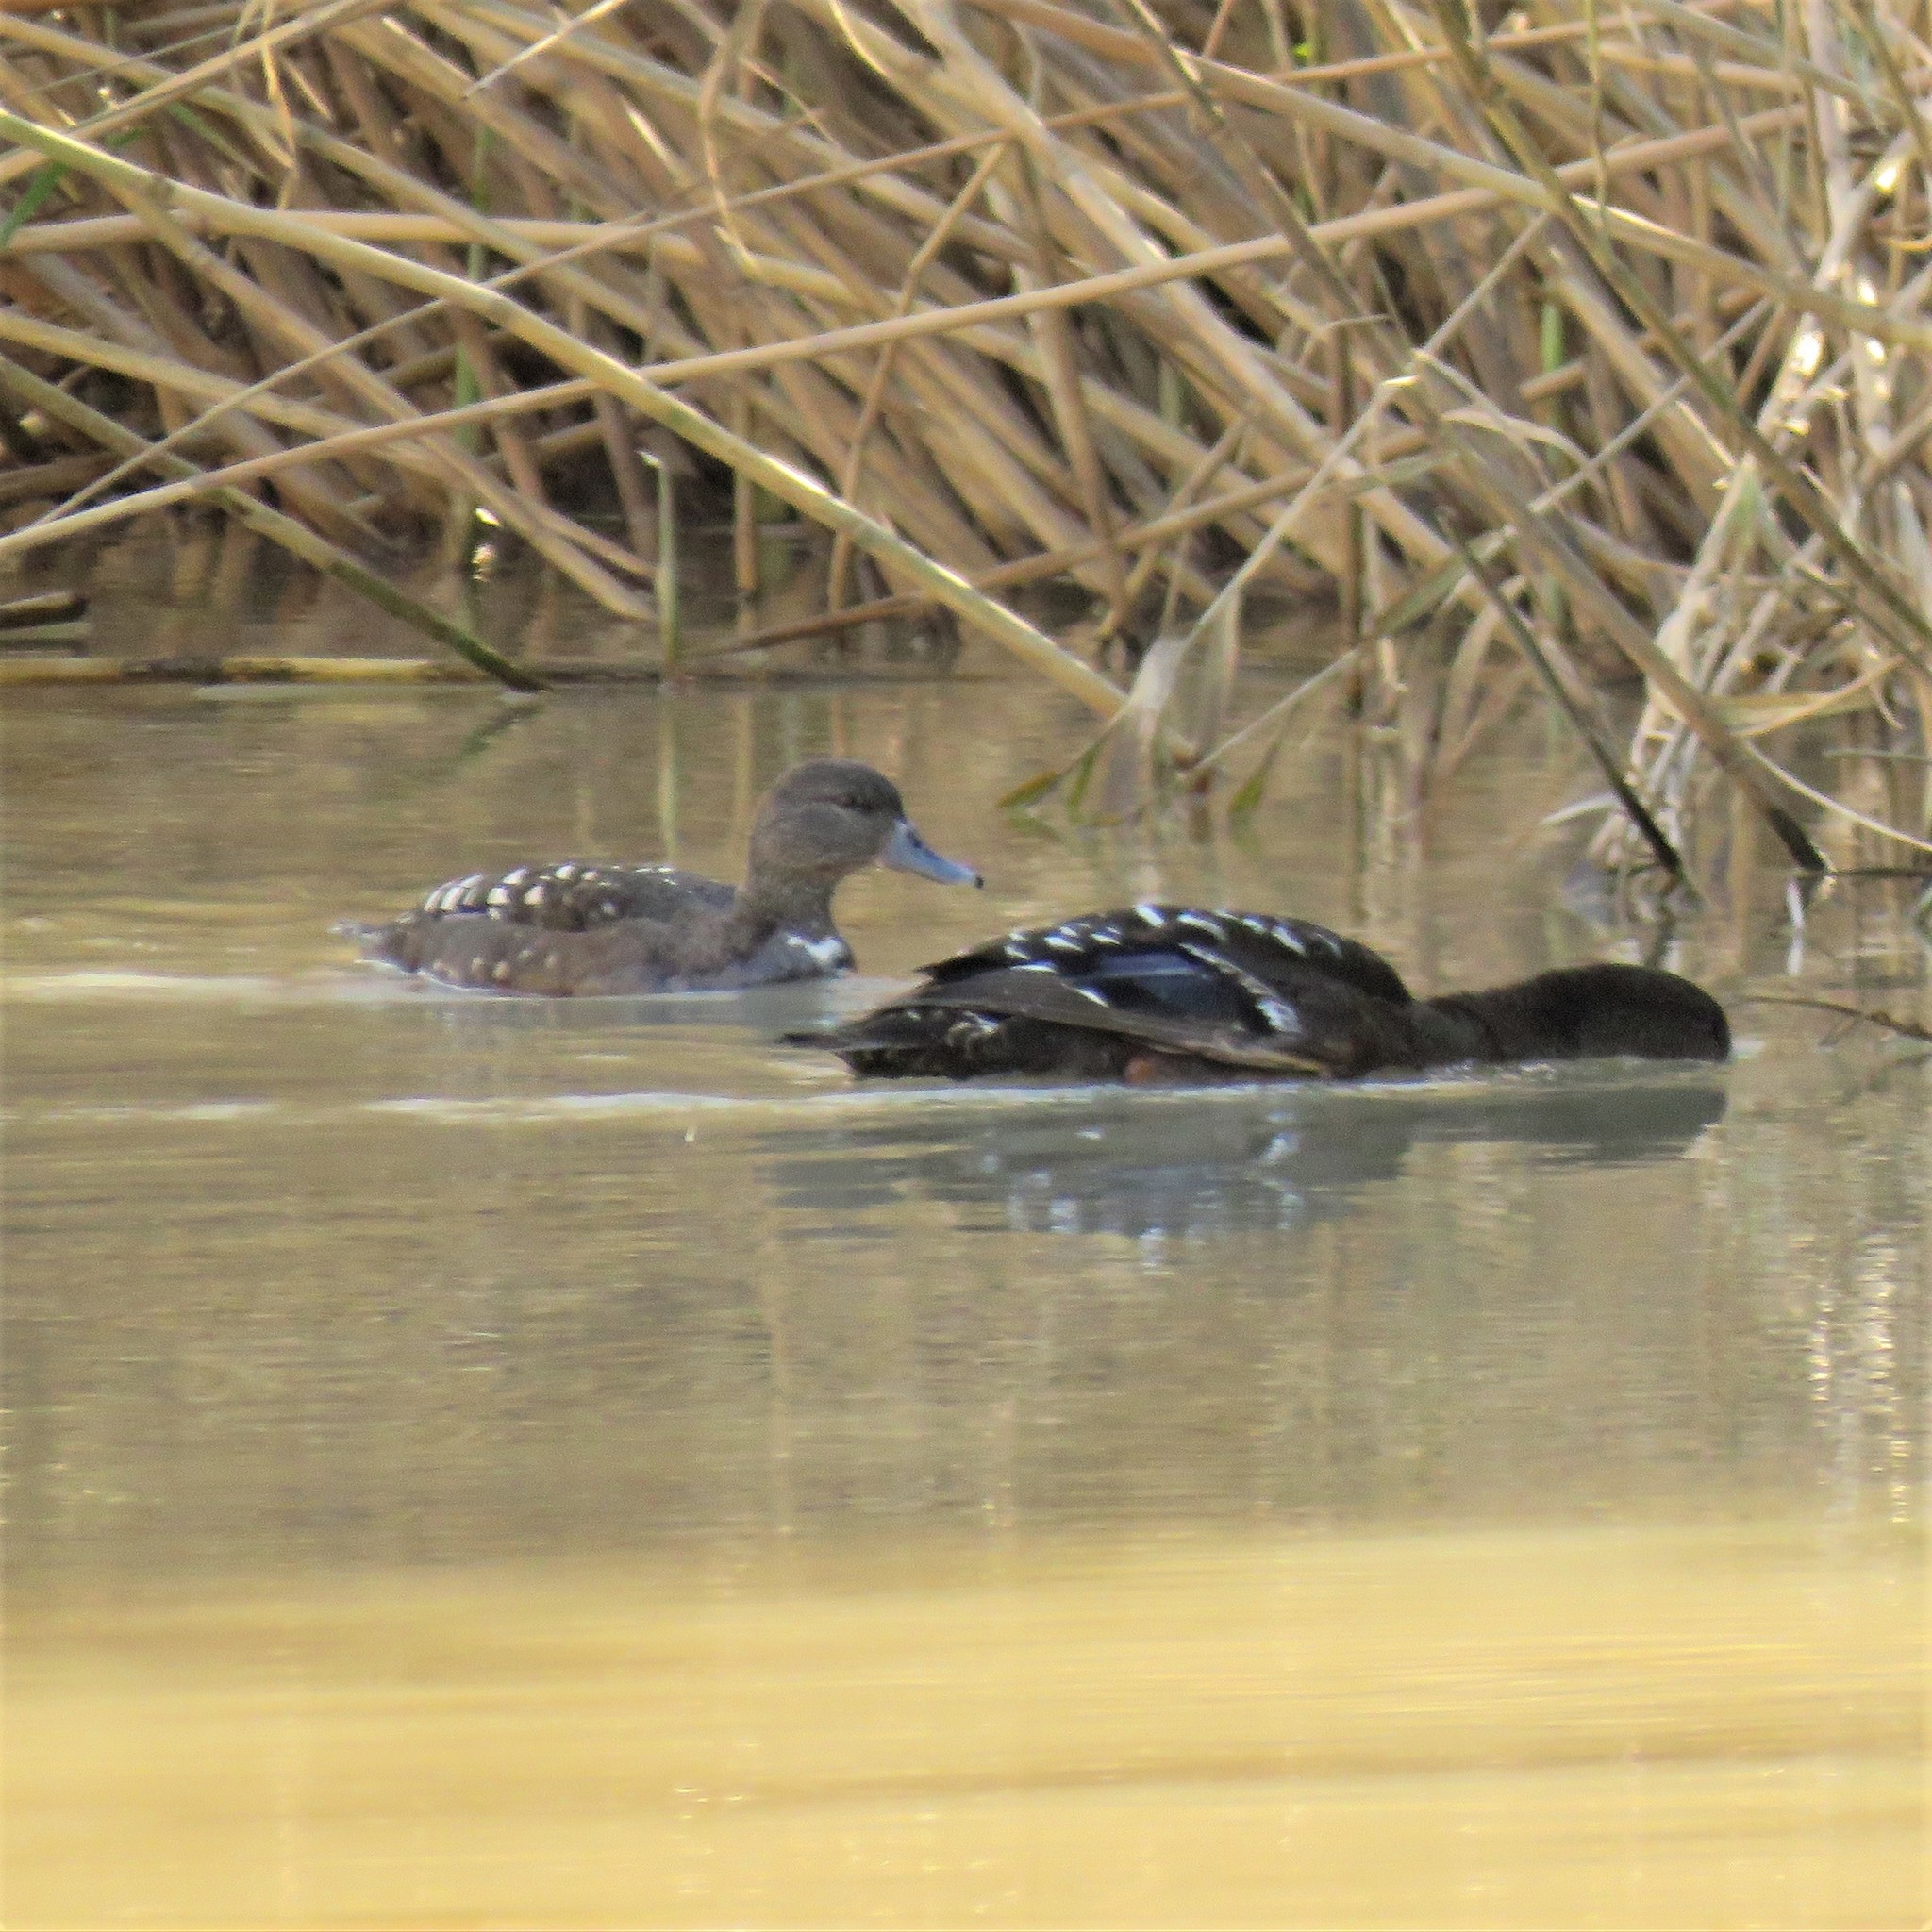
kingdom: Animalia
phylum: Chordata
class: Aves
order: Anseriformes
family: Anatidae
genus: Anas
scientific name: Anas sparsa
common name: African black duck
